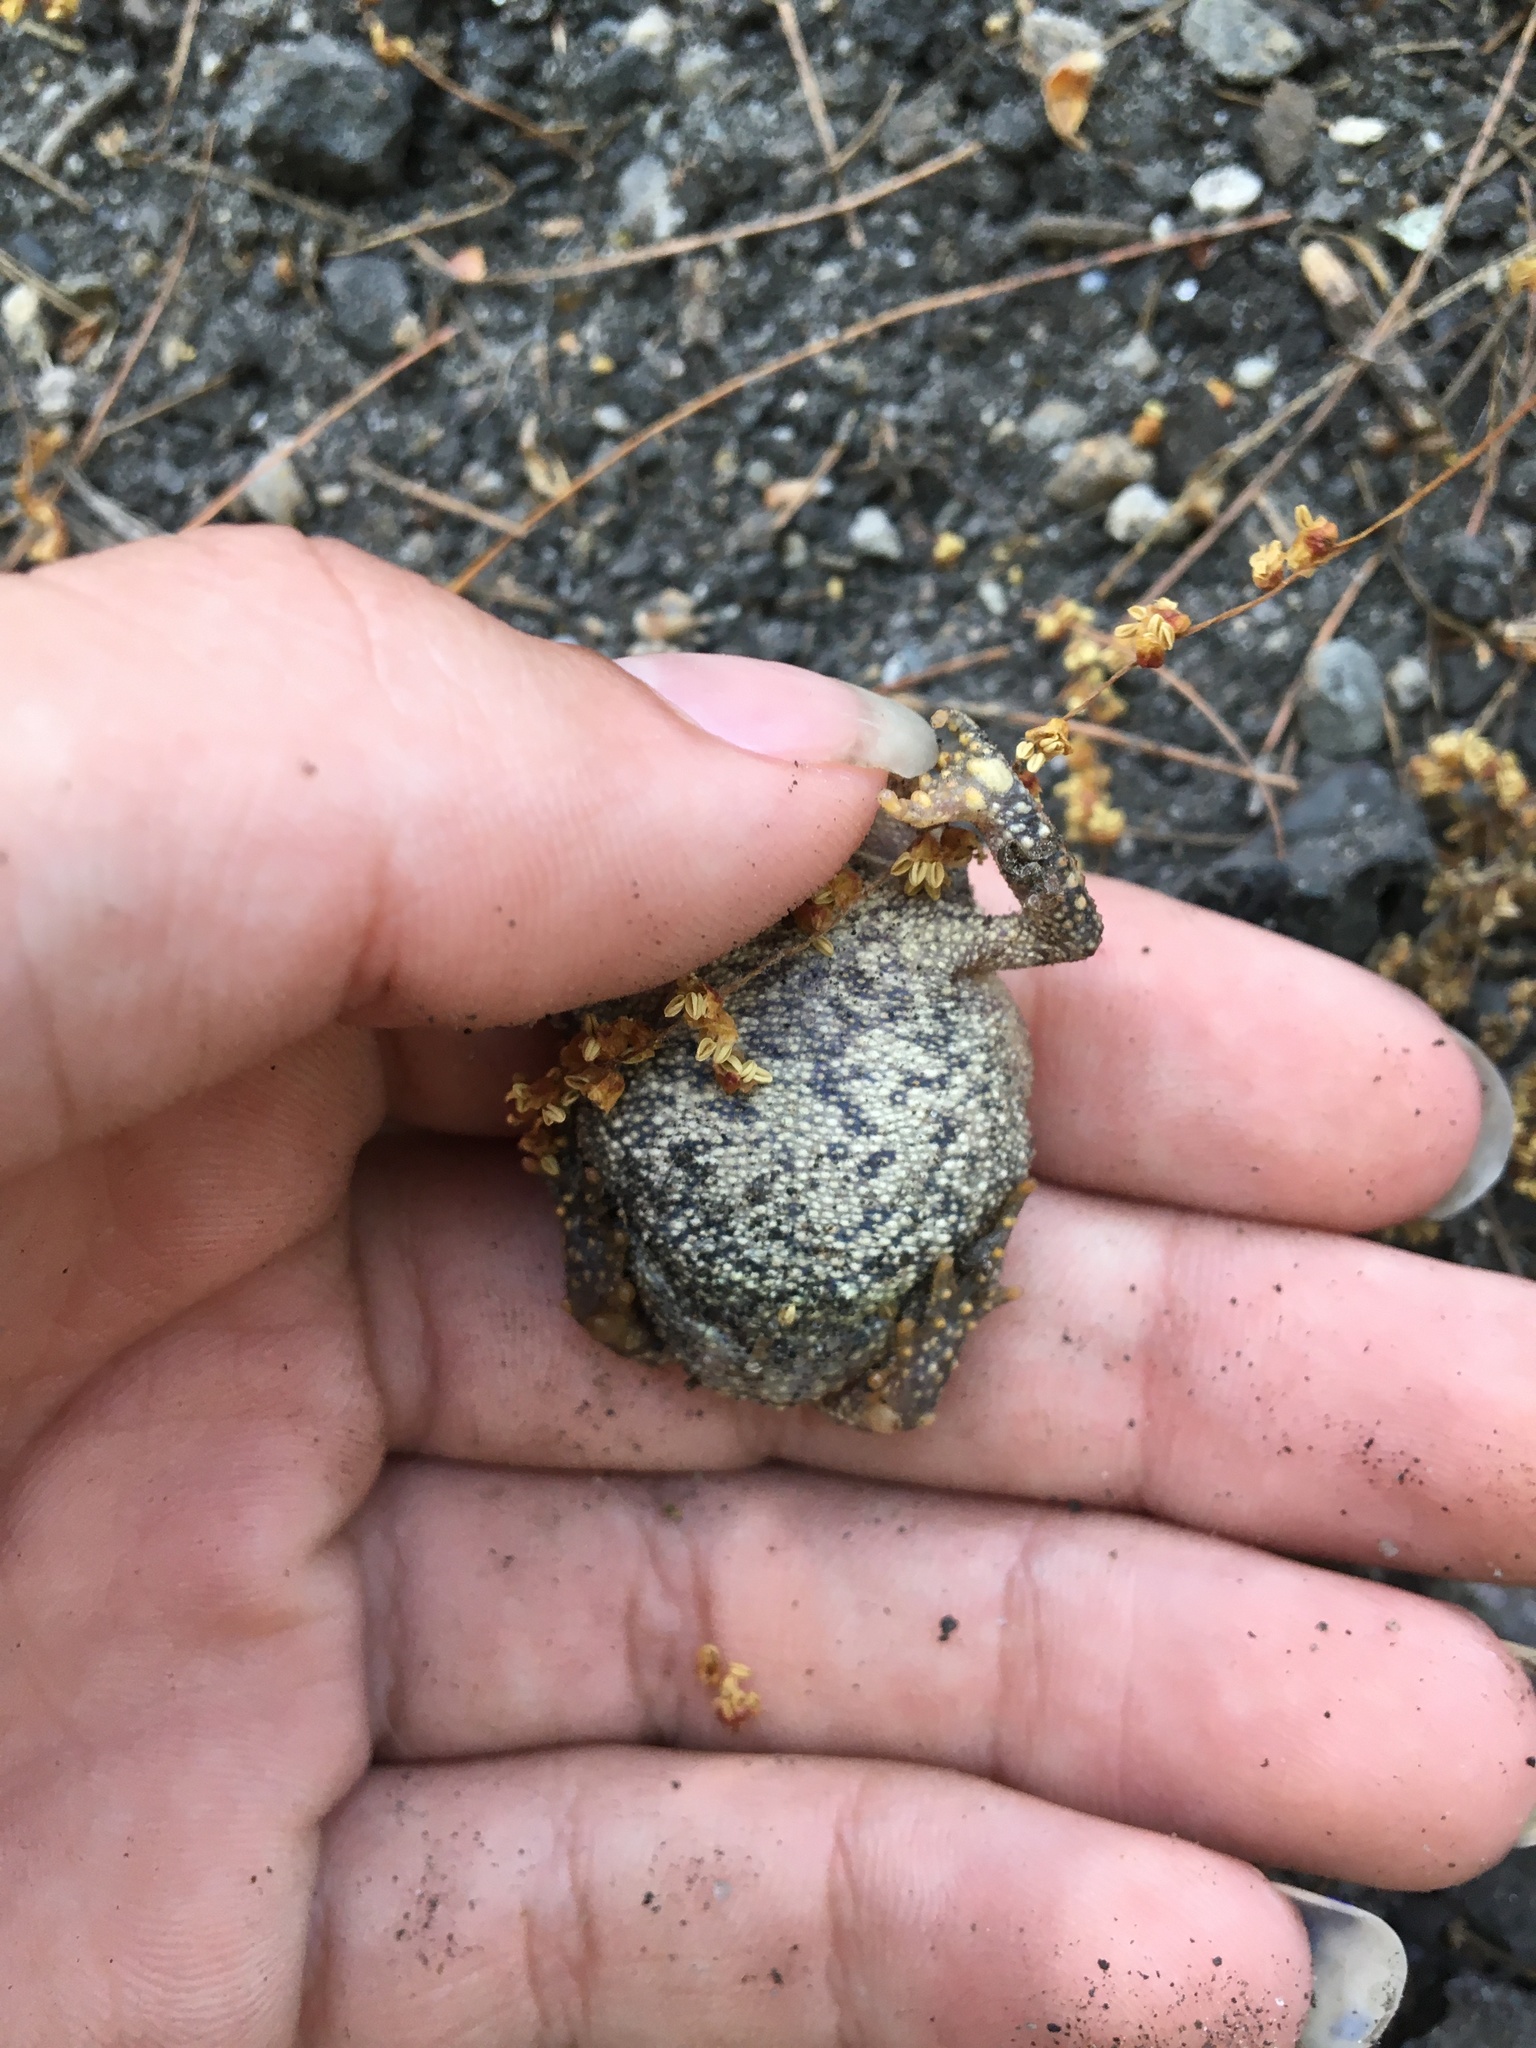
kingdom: Animalia
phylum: Chordata
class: Amphibia
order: Anura
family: Bufonidae
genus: Anaxyrus
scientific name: Anaxyrus americanus
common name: American toad
